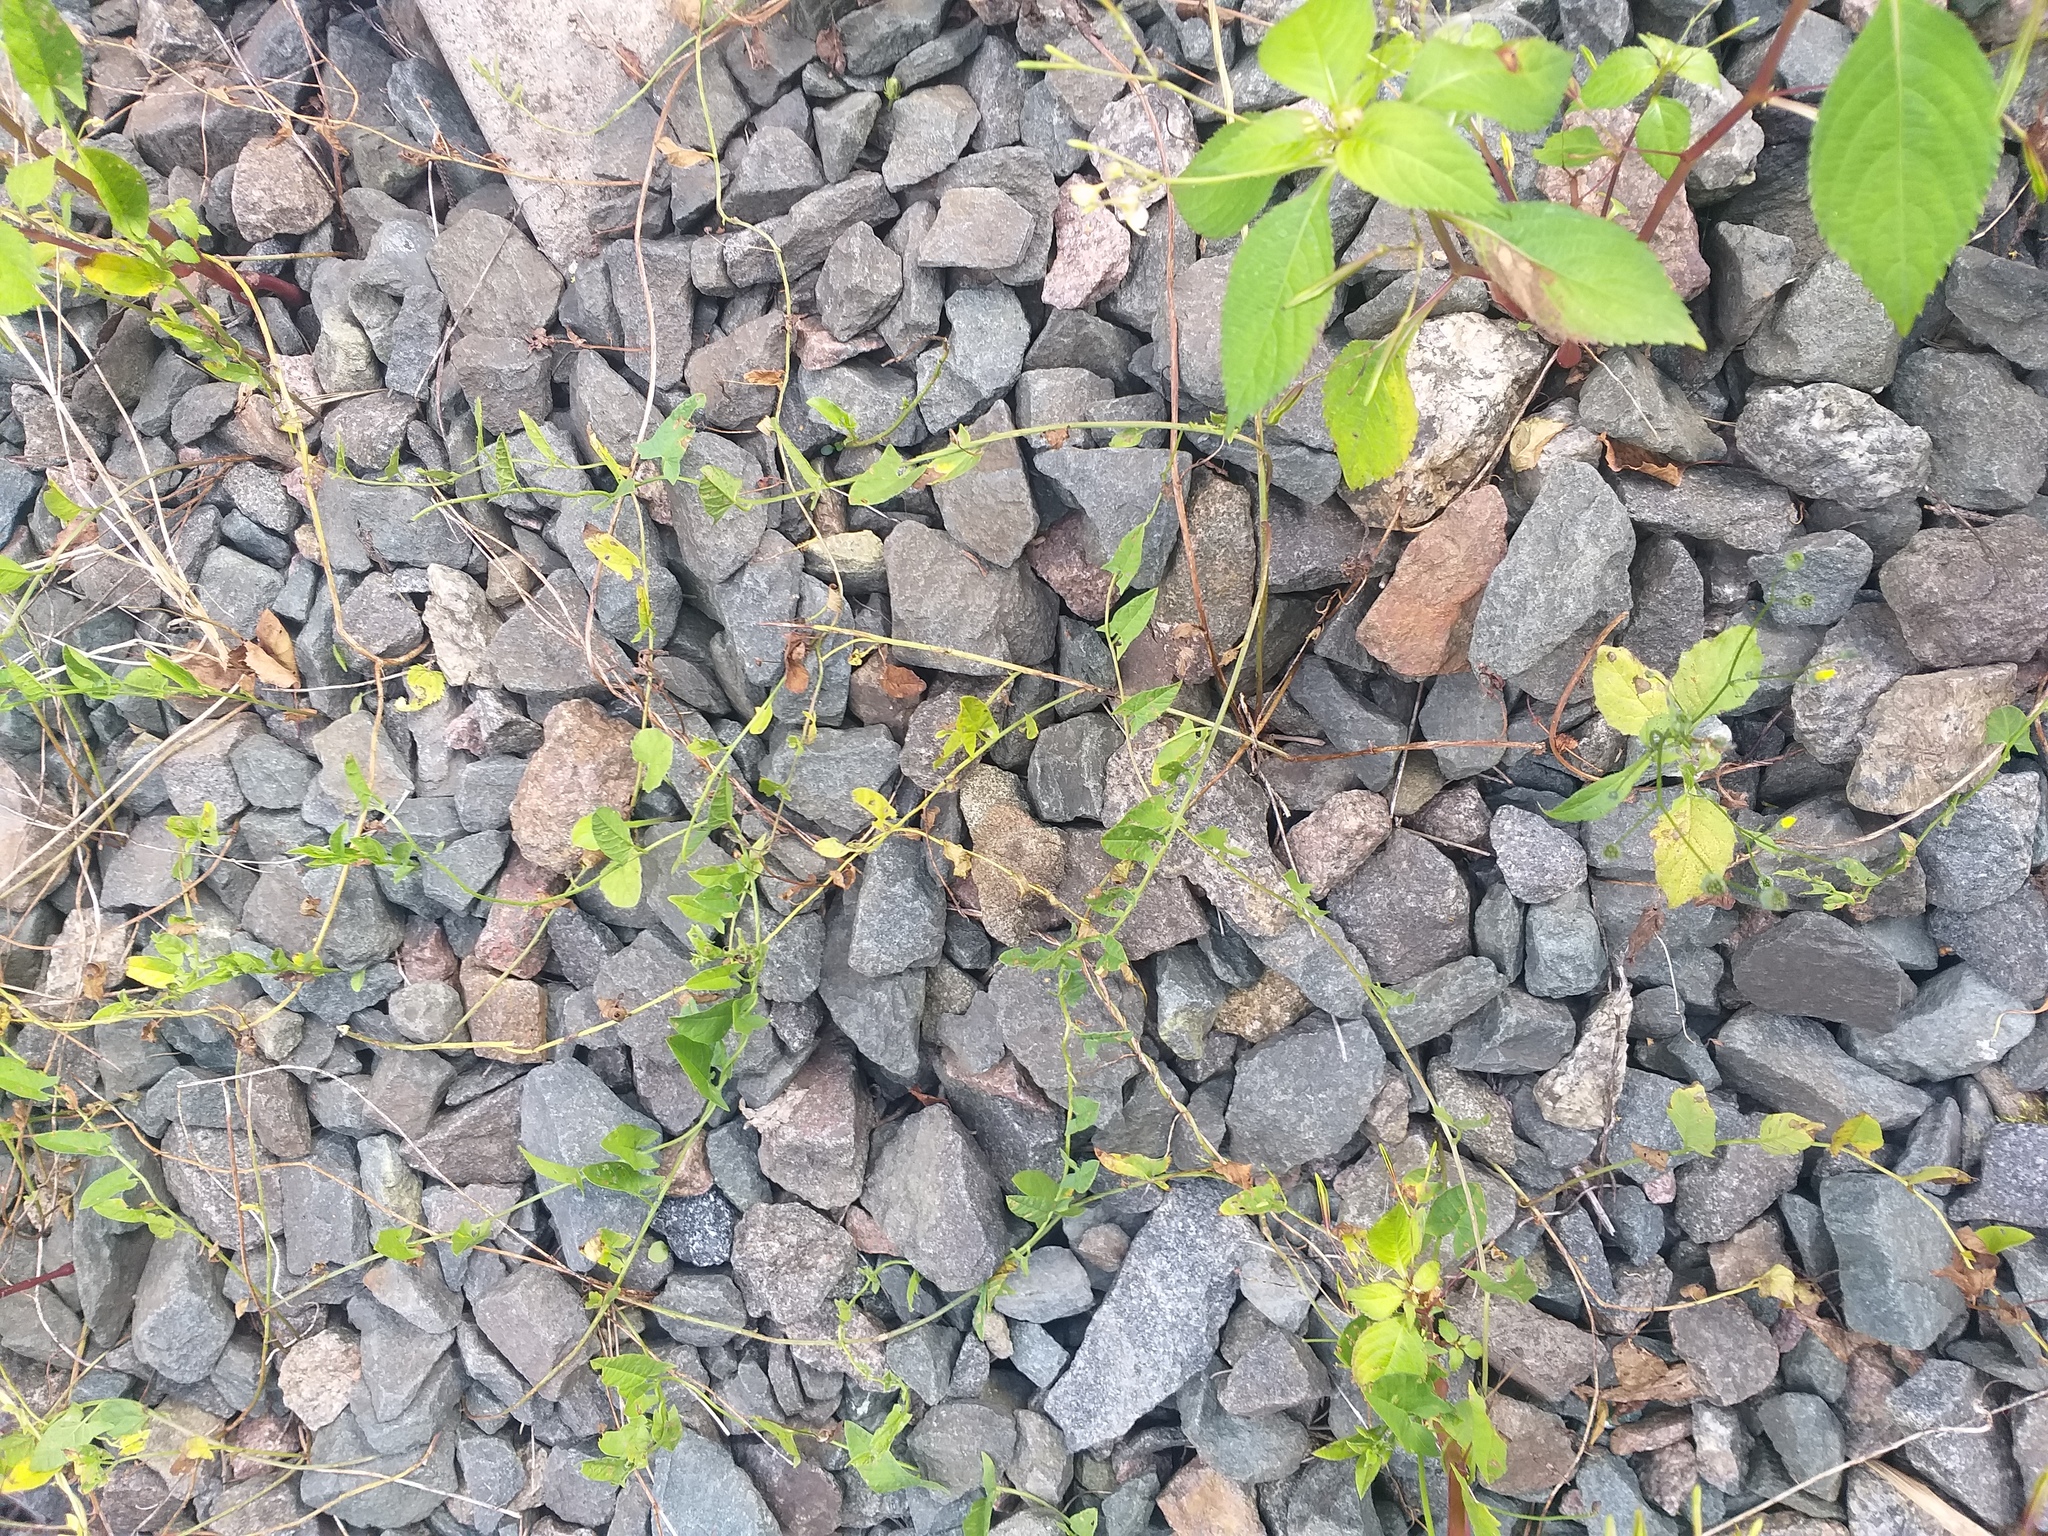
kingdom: Plantae
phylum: Tracheophyta
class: Magnoliopsida
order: Solanales
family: Convolvulaceae
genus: Convolvulus
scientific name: Convolvulus arvensis
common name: Field bindweed
